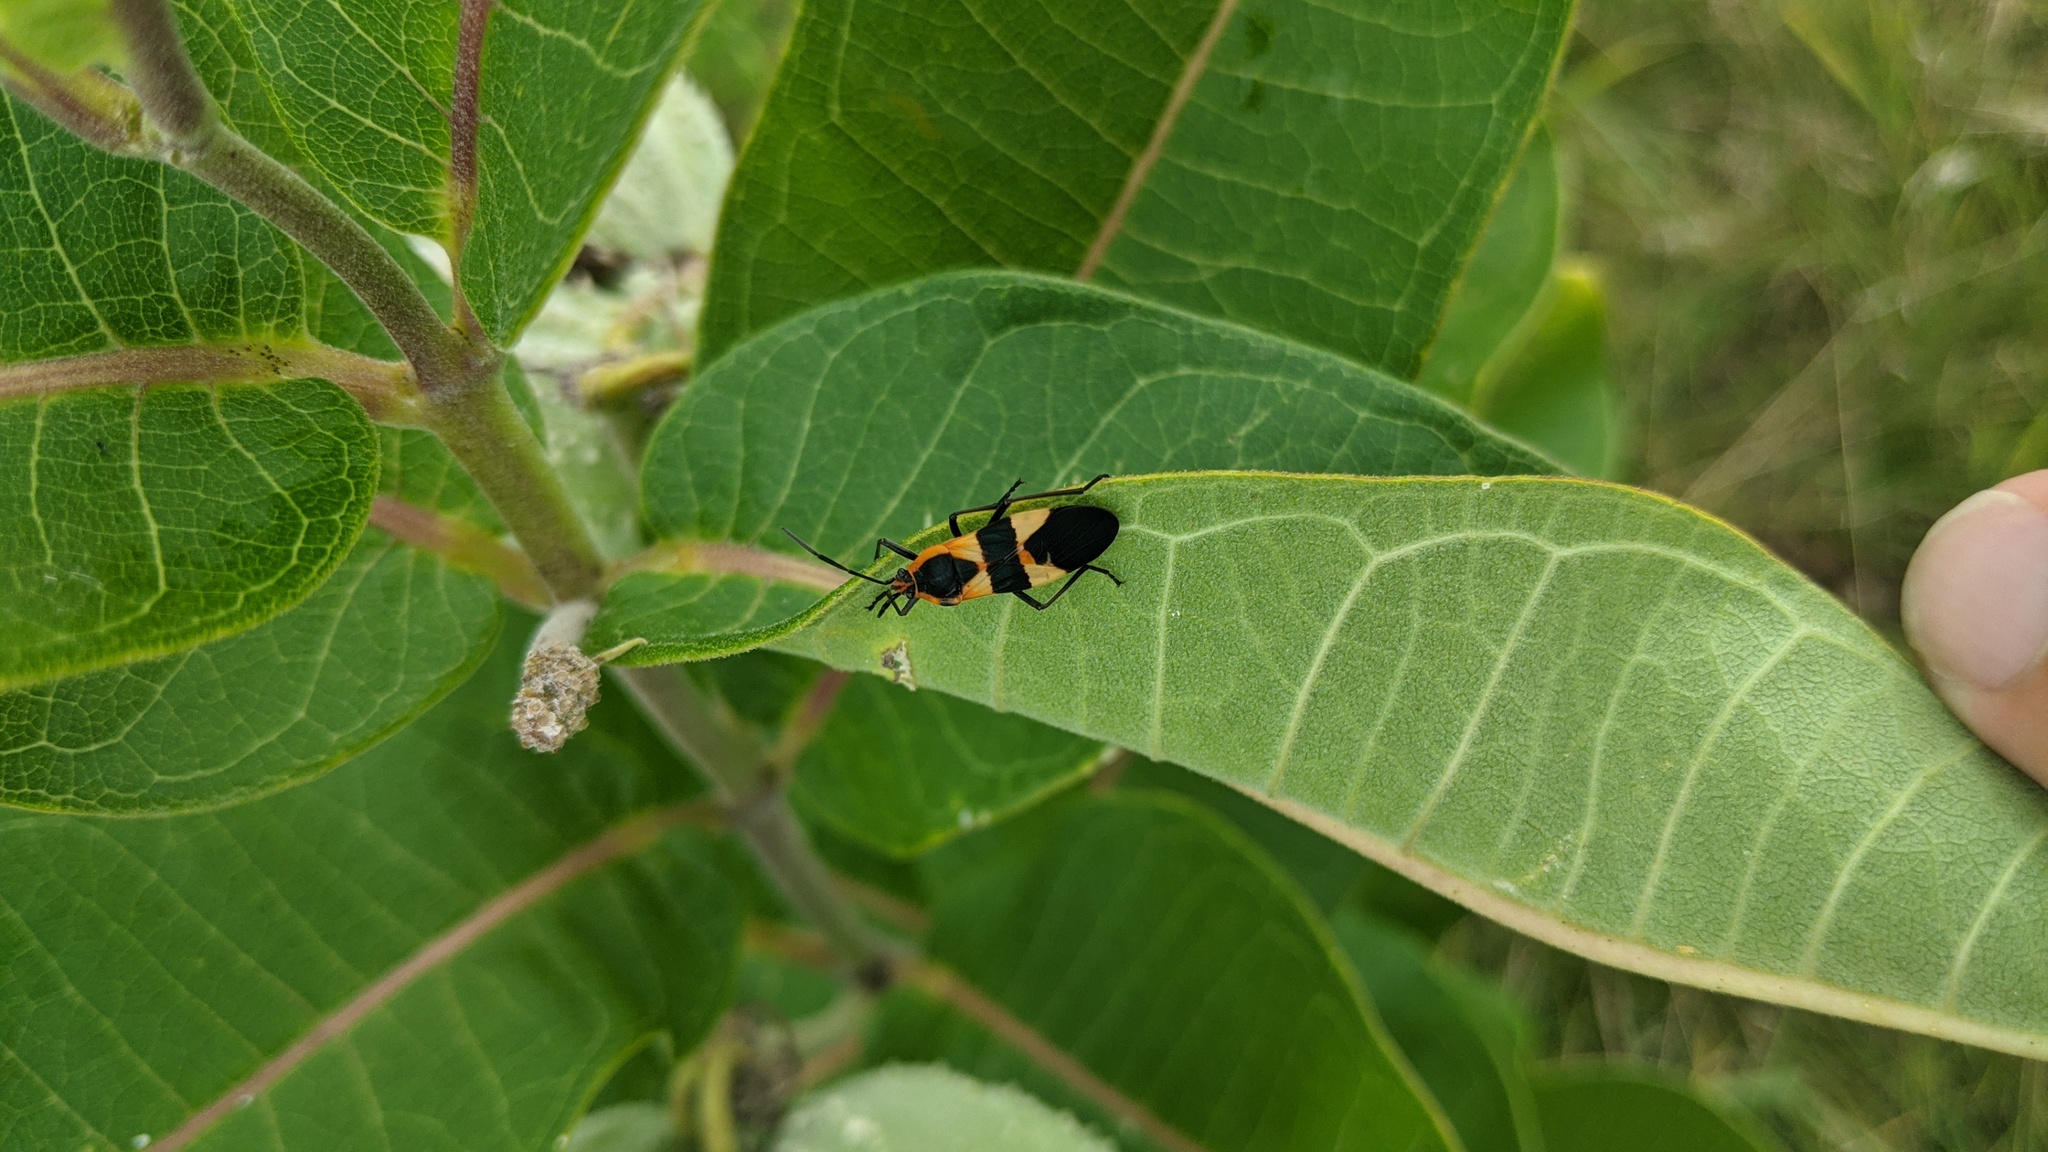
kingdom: Animalia
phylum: Arthropoda
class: Insecta
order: Hemiptera
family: Lygaeidae
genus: Oncopeltus
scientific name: Oncopeltus fasciatus
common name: Large milkweed bug
